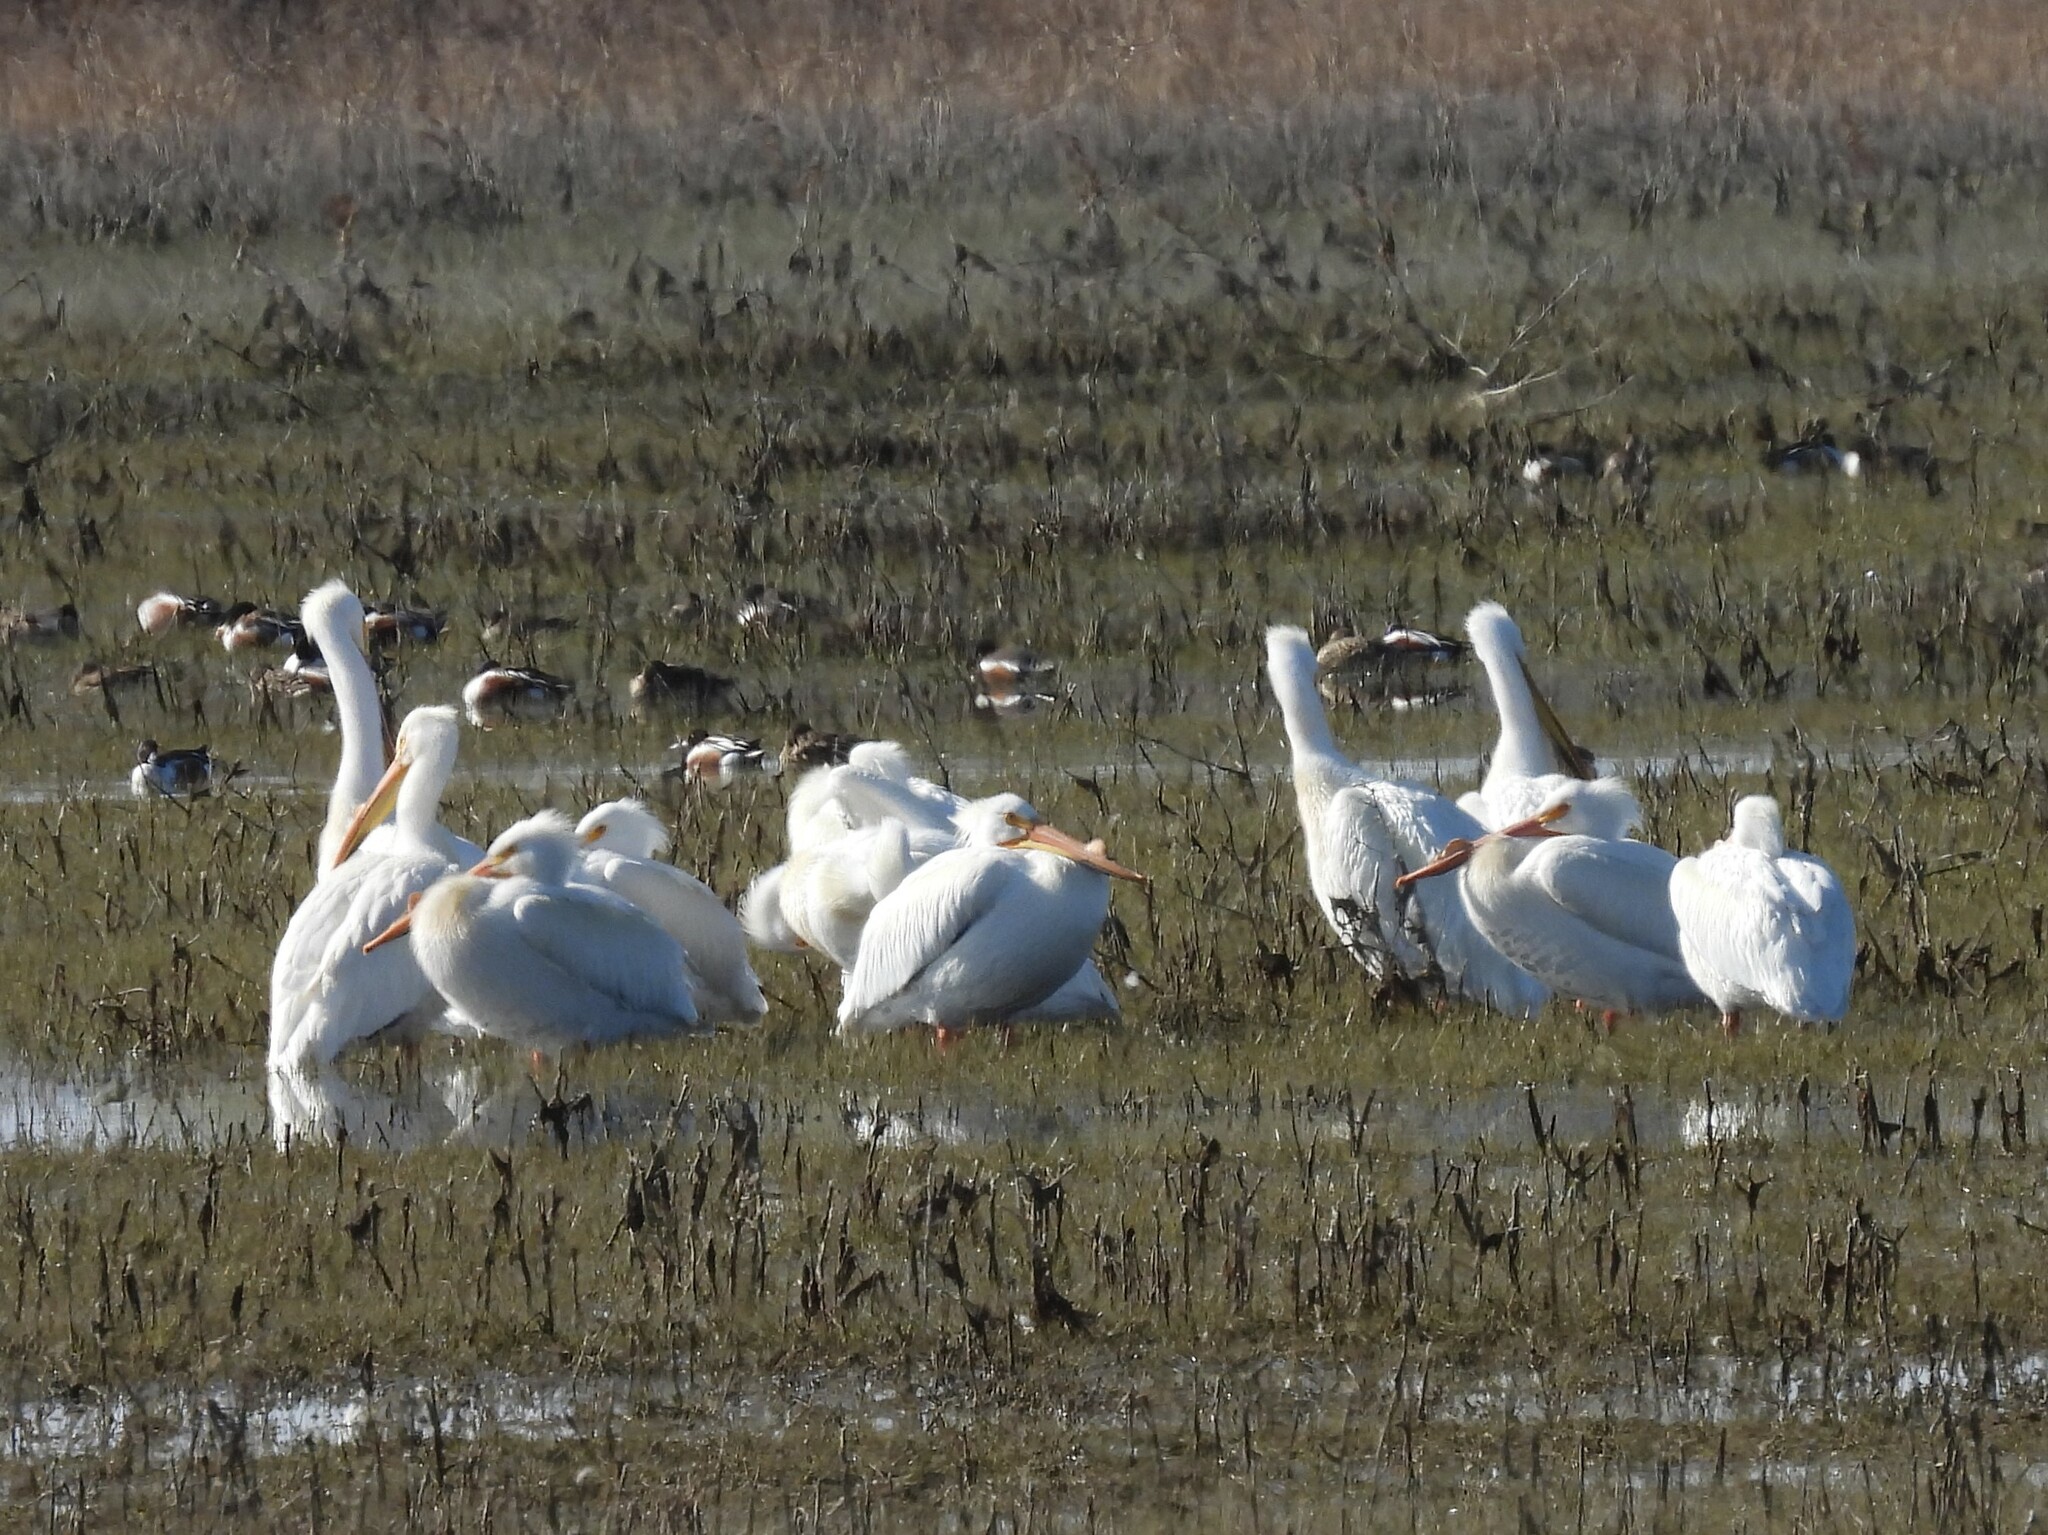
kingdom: Animalia
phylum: Chordata
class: Aves
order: Pelecaniformes
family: Pelecanidae
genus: Pelecanus
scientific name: Pelecanus erythrorhynchos
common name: American white pelican
